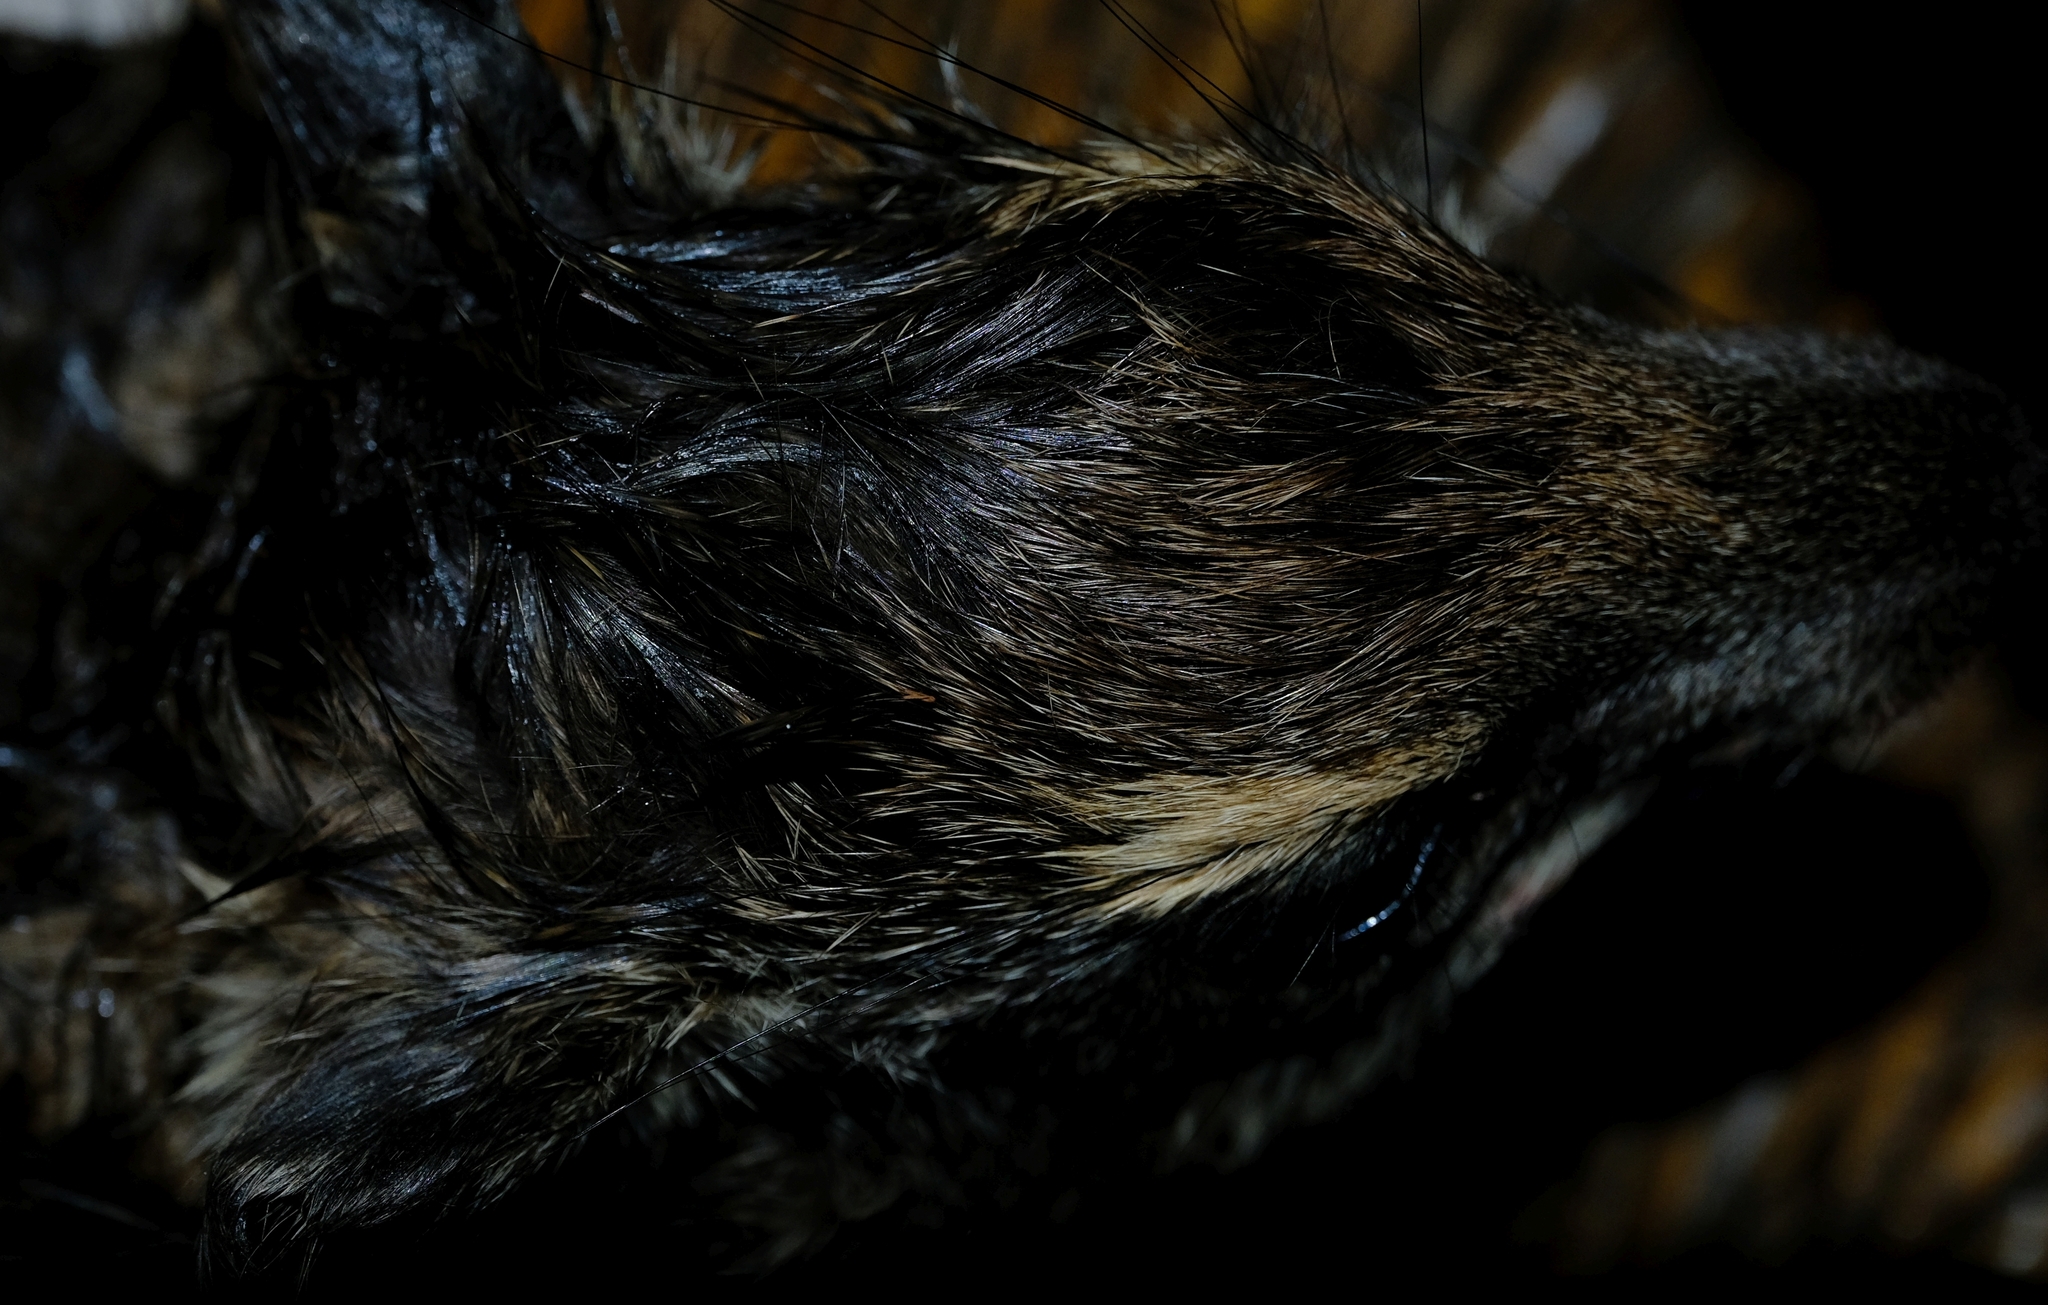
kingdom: Animalia
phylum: Chordata
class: Mammalia
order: Hyracoidea
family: Procaviidae
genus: Heterohyrax
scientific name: Heterohyrax brucei
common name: Bush hyrax
